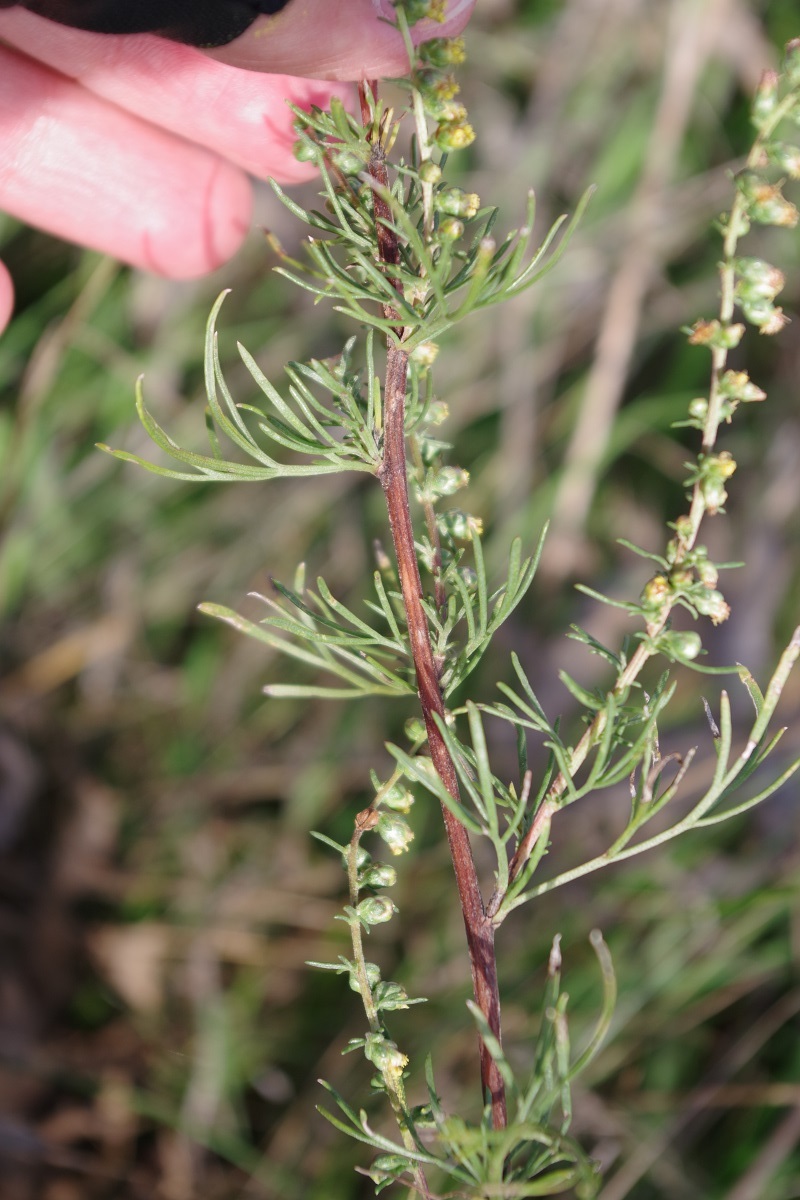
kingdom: Plantae
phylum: Tracheophyta
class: Magnoliopsida
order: Asterales
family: Asteraceae
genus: Artemisia
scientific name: Artemisia campestris
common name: Field wormwood
